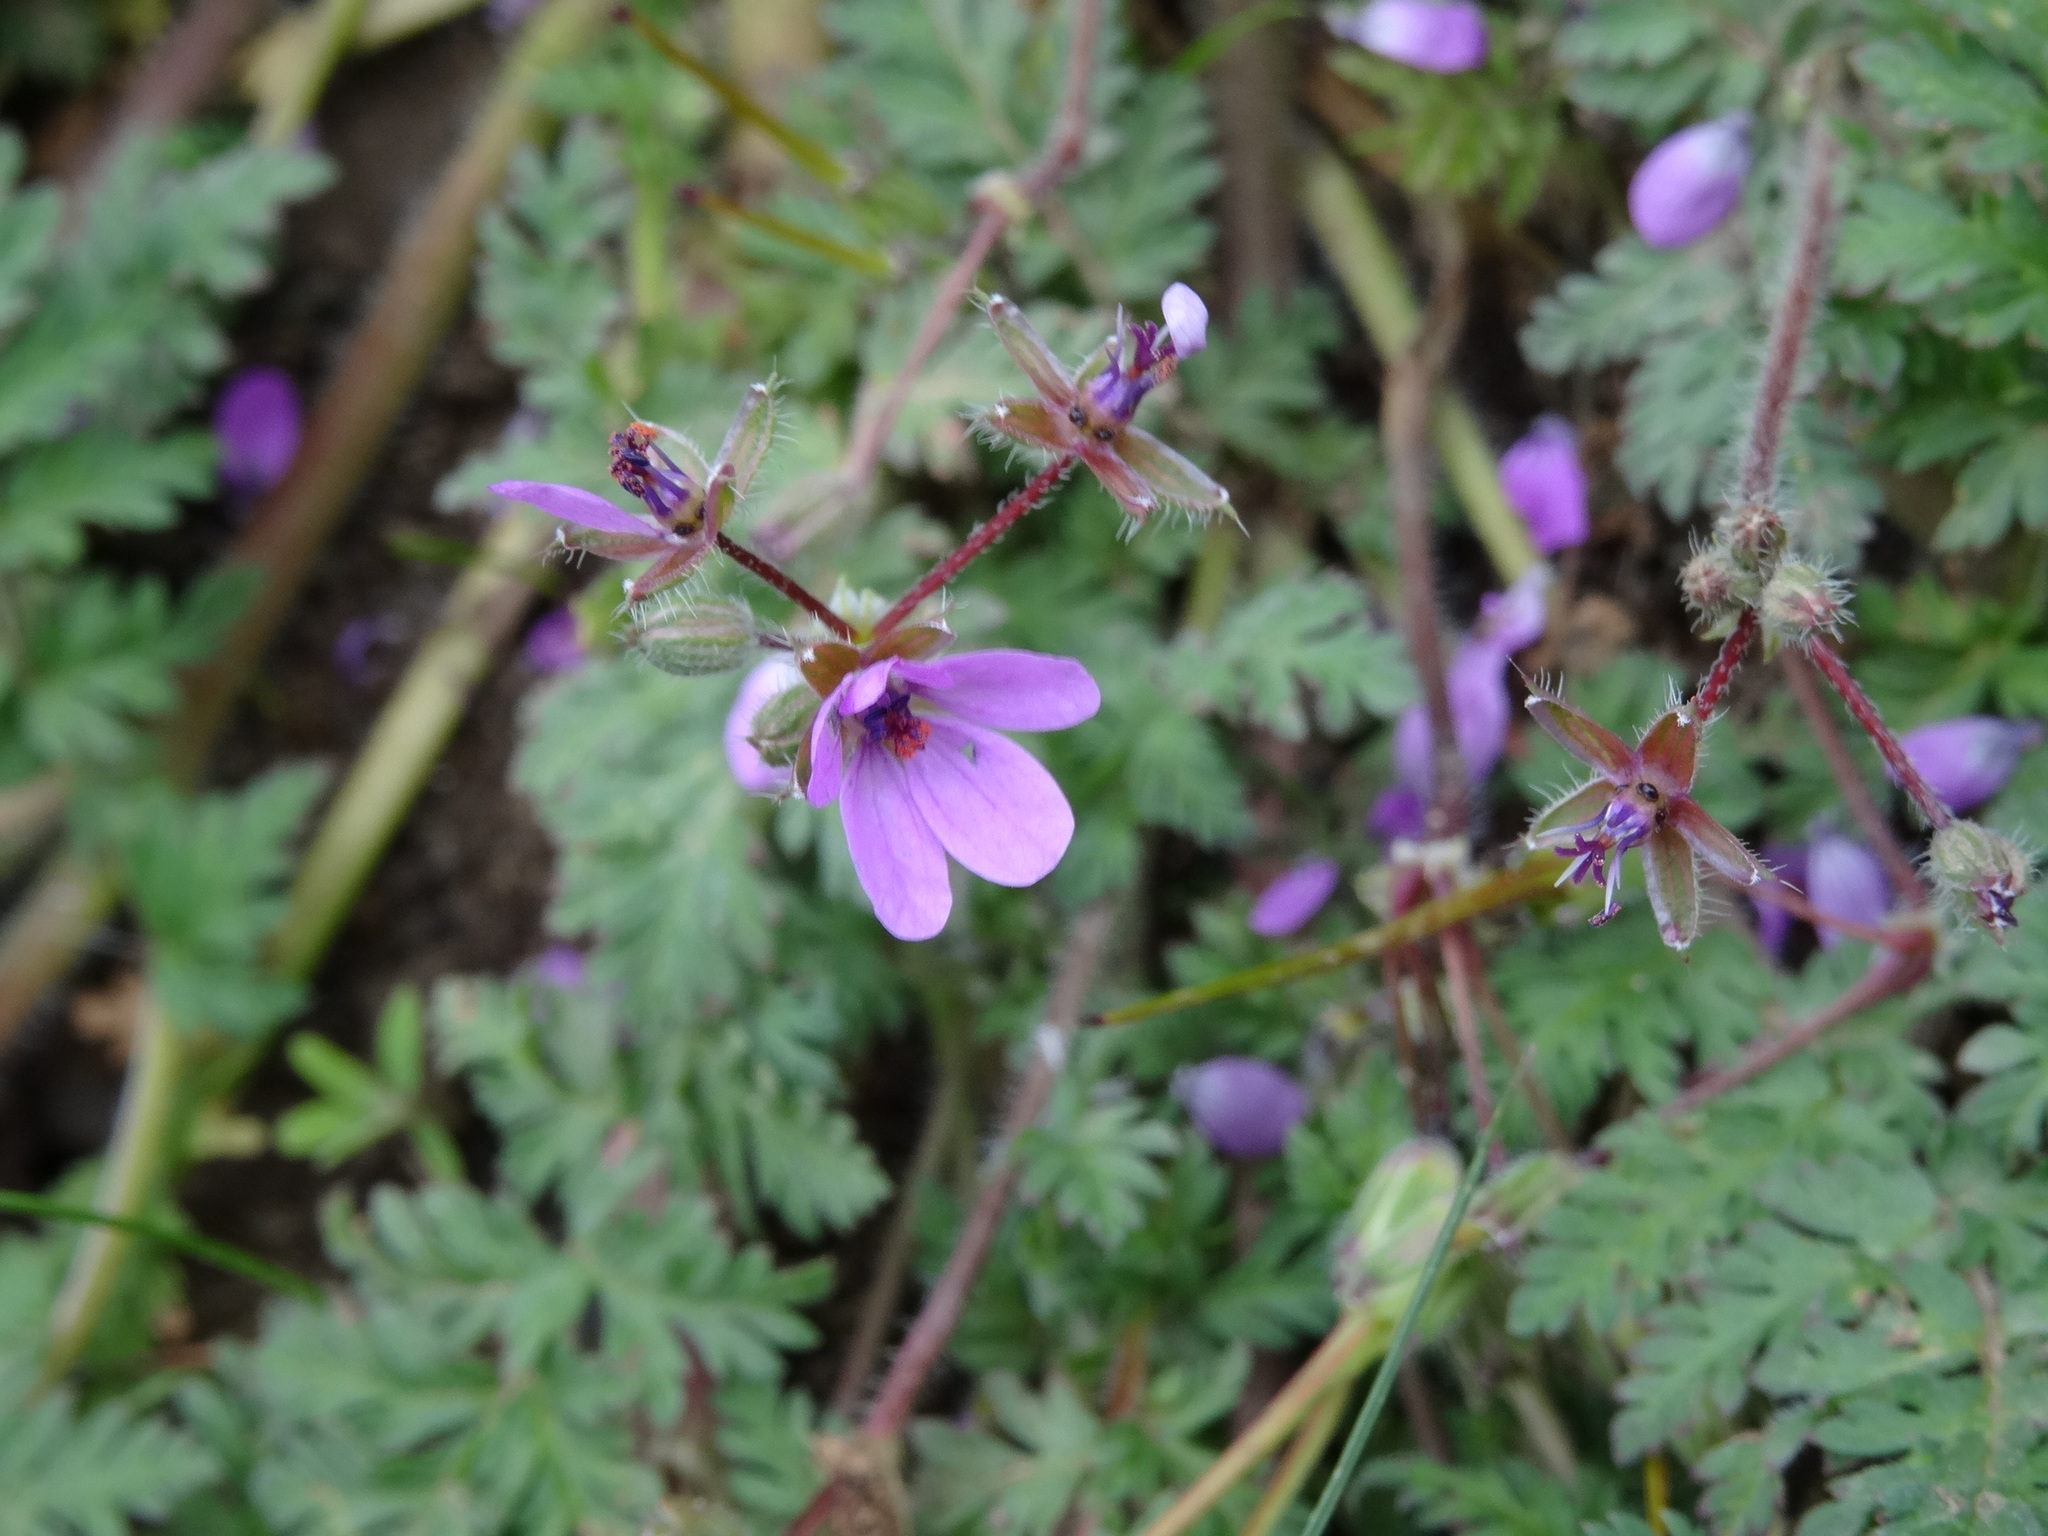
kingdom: Plantae
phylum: Tracheophyta
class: Magnoliopsida
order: Geraniales
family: Geraniaceae
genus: Erodium
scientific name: Erodium cicutarium
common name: Common stork's-bill
